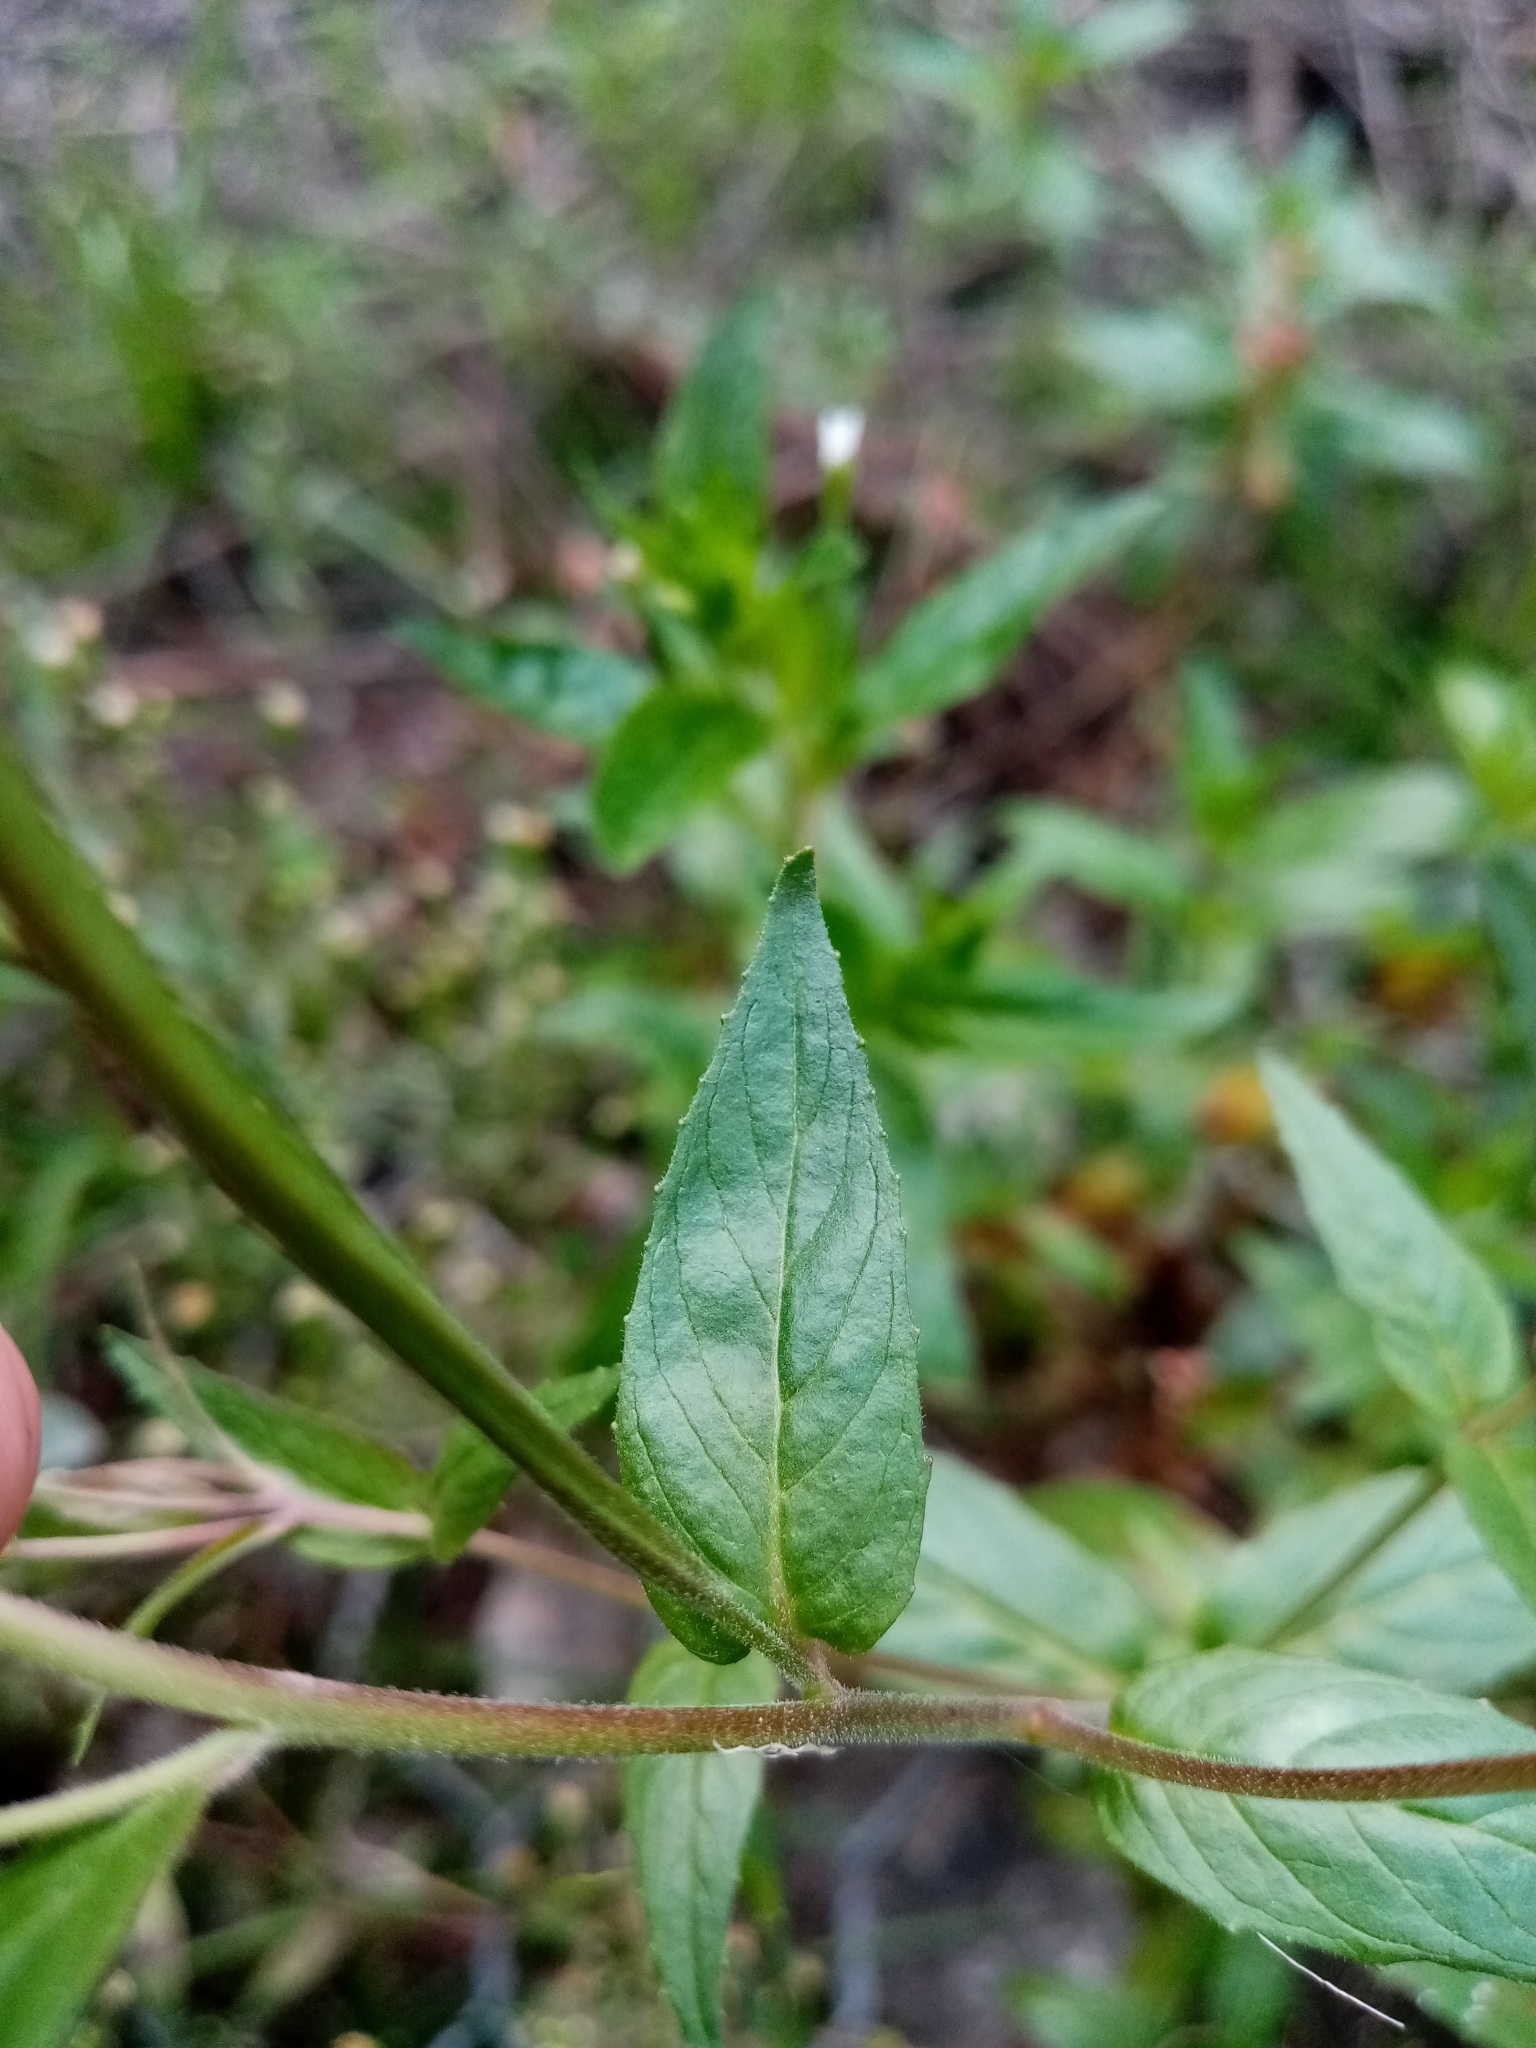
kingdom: Plantae
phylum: Tracheophyta
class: Magnoliopsida
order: Myrtales
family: Onagraceae
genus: Epilobium
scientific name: Epilobium ciliatum
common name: American willowherb
